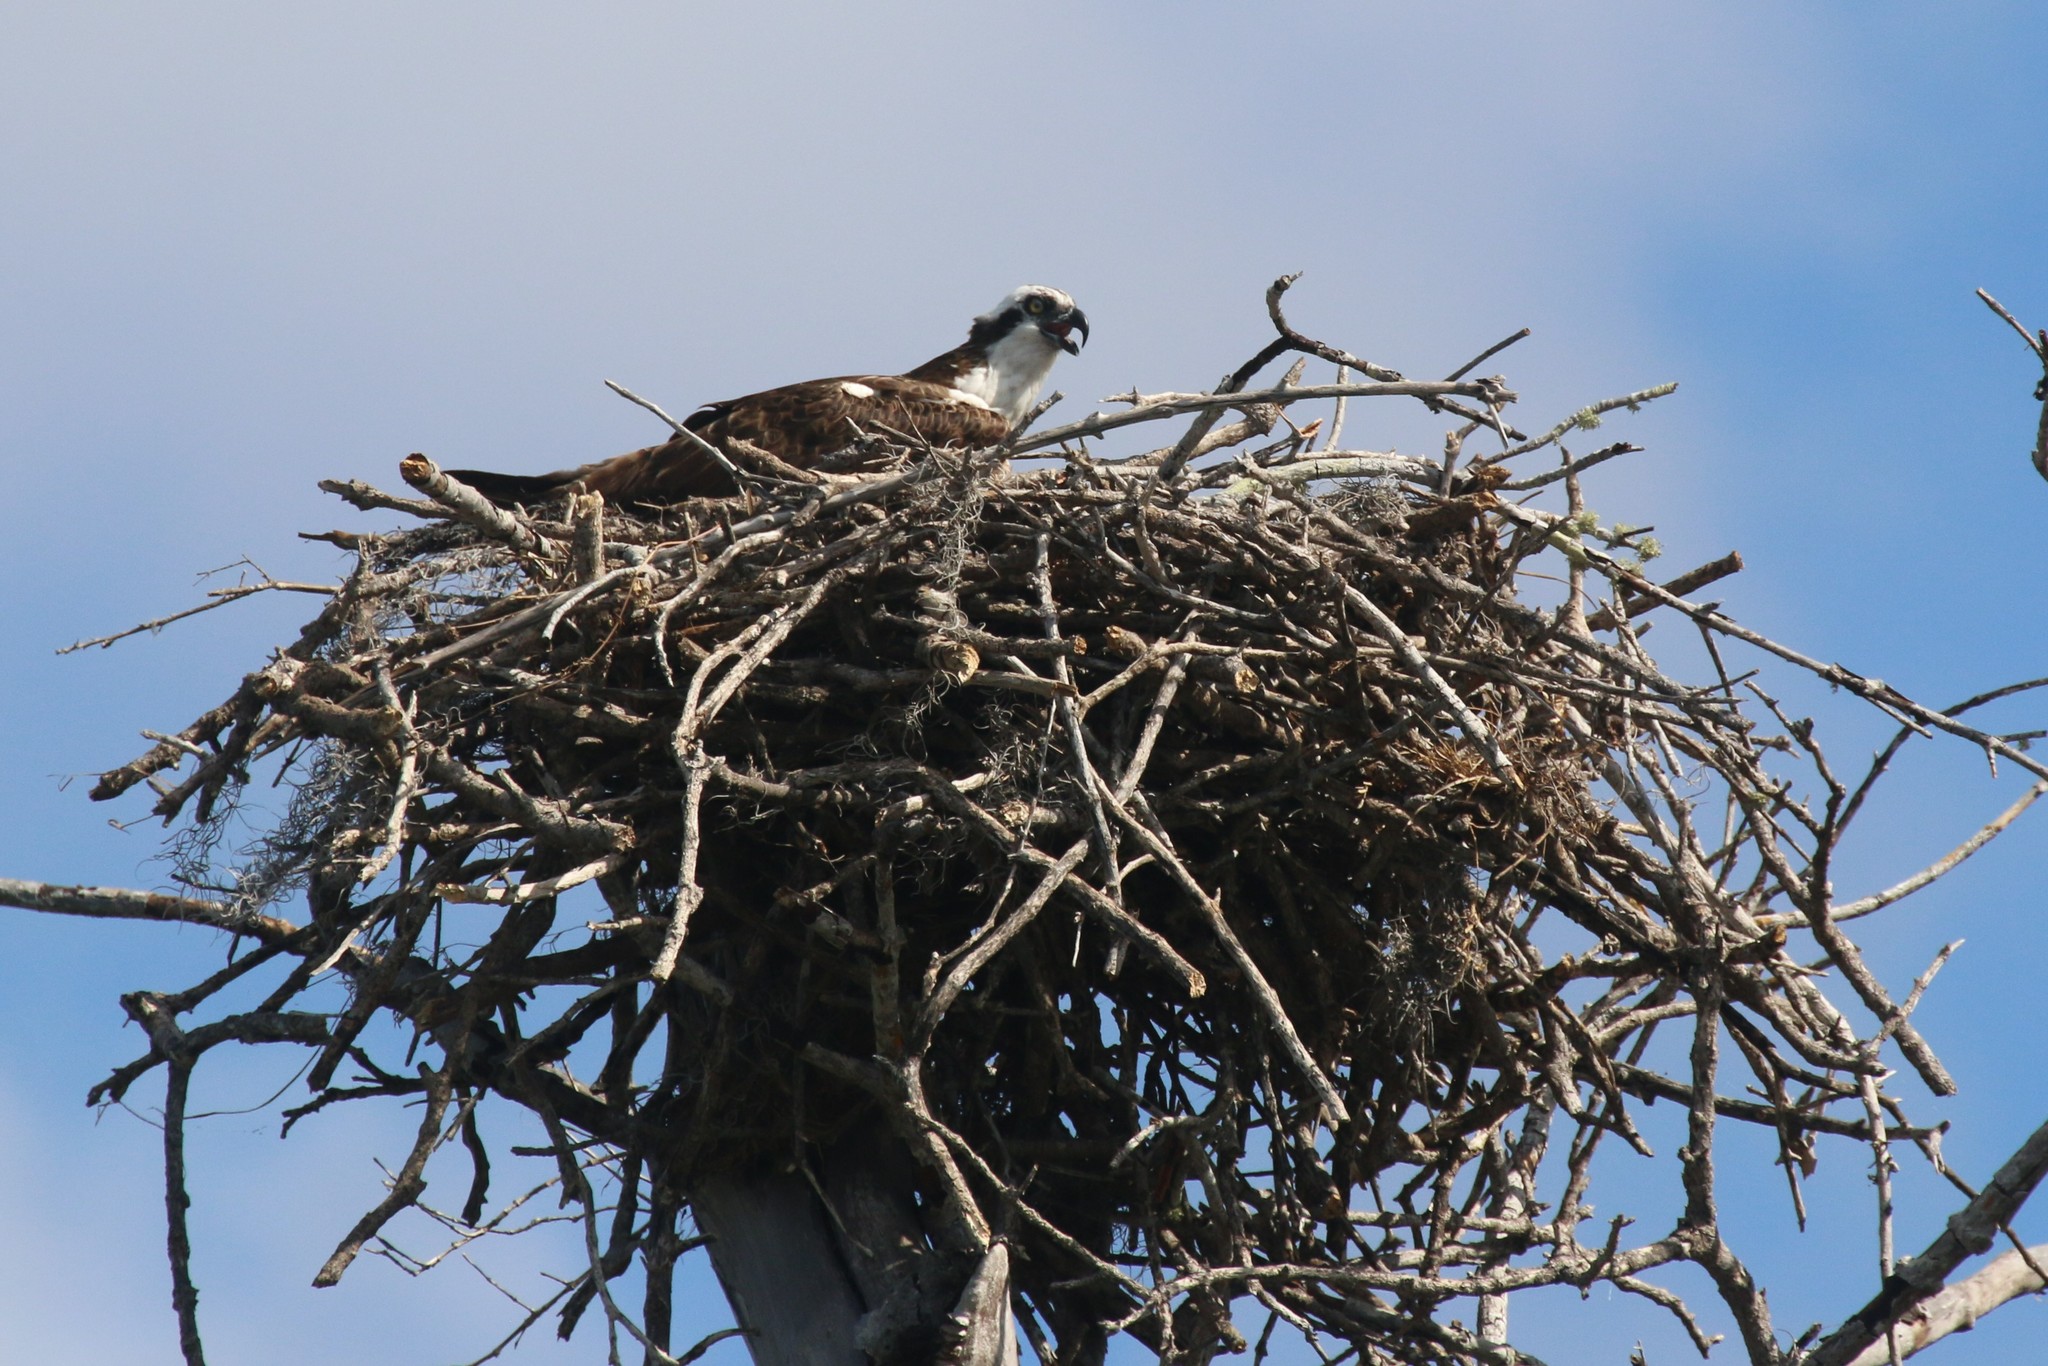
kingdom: Animalia
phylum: Chordata
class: Aves
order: Accipitriformes
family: Pandionidae
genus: Pandion
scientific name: Pandion haliaetus
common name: Osprey
